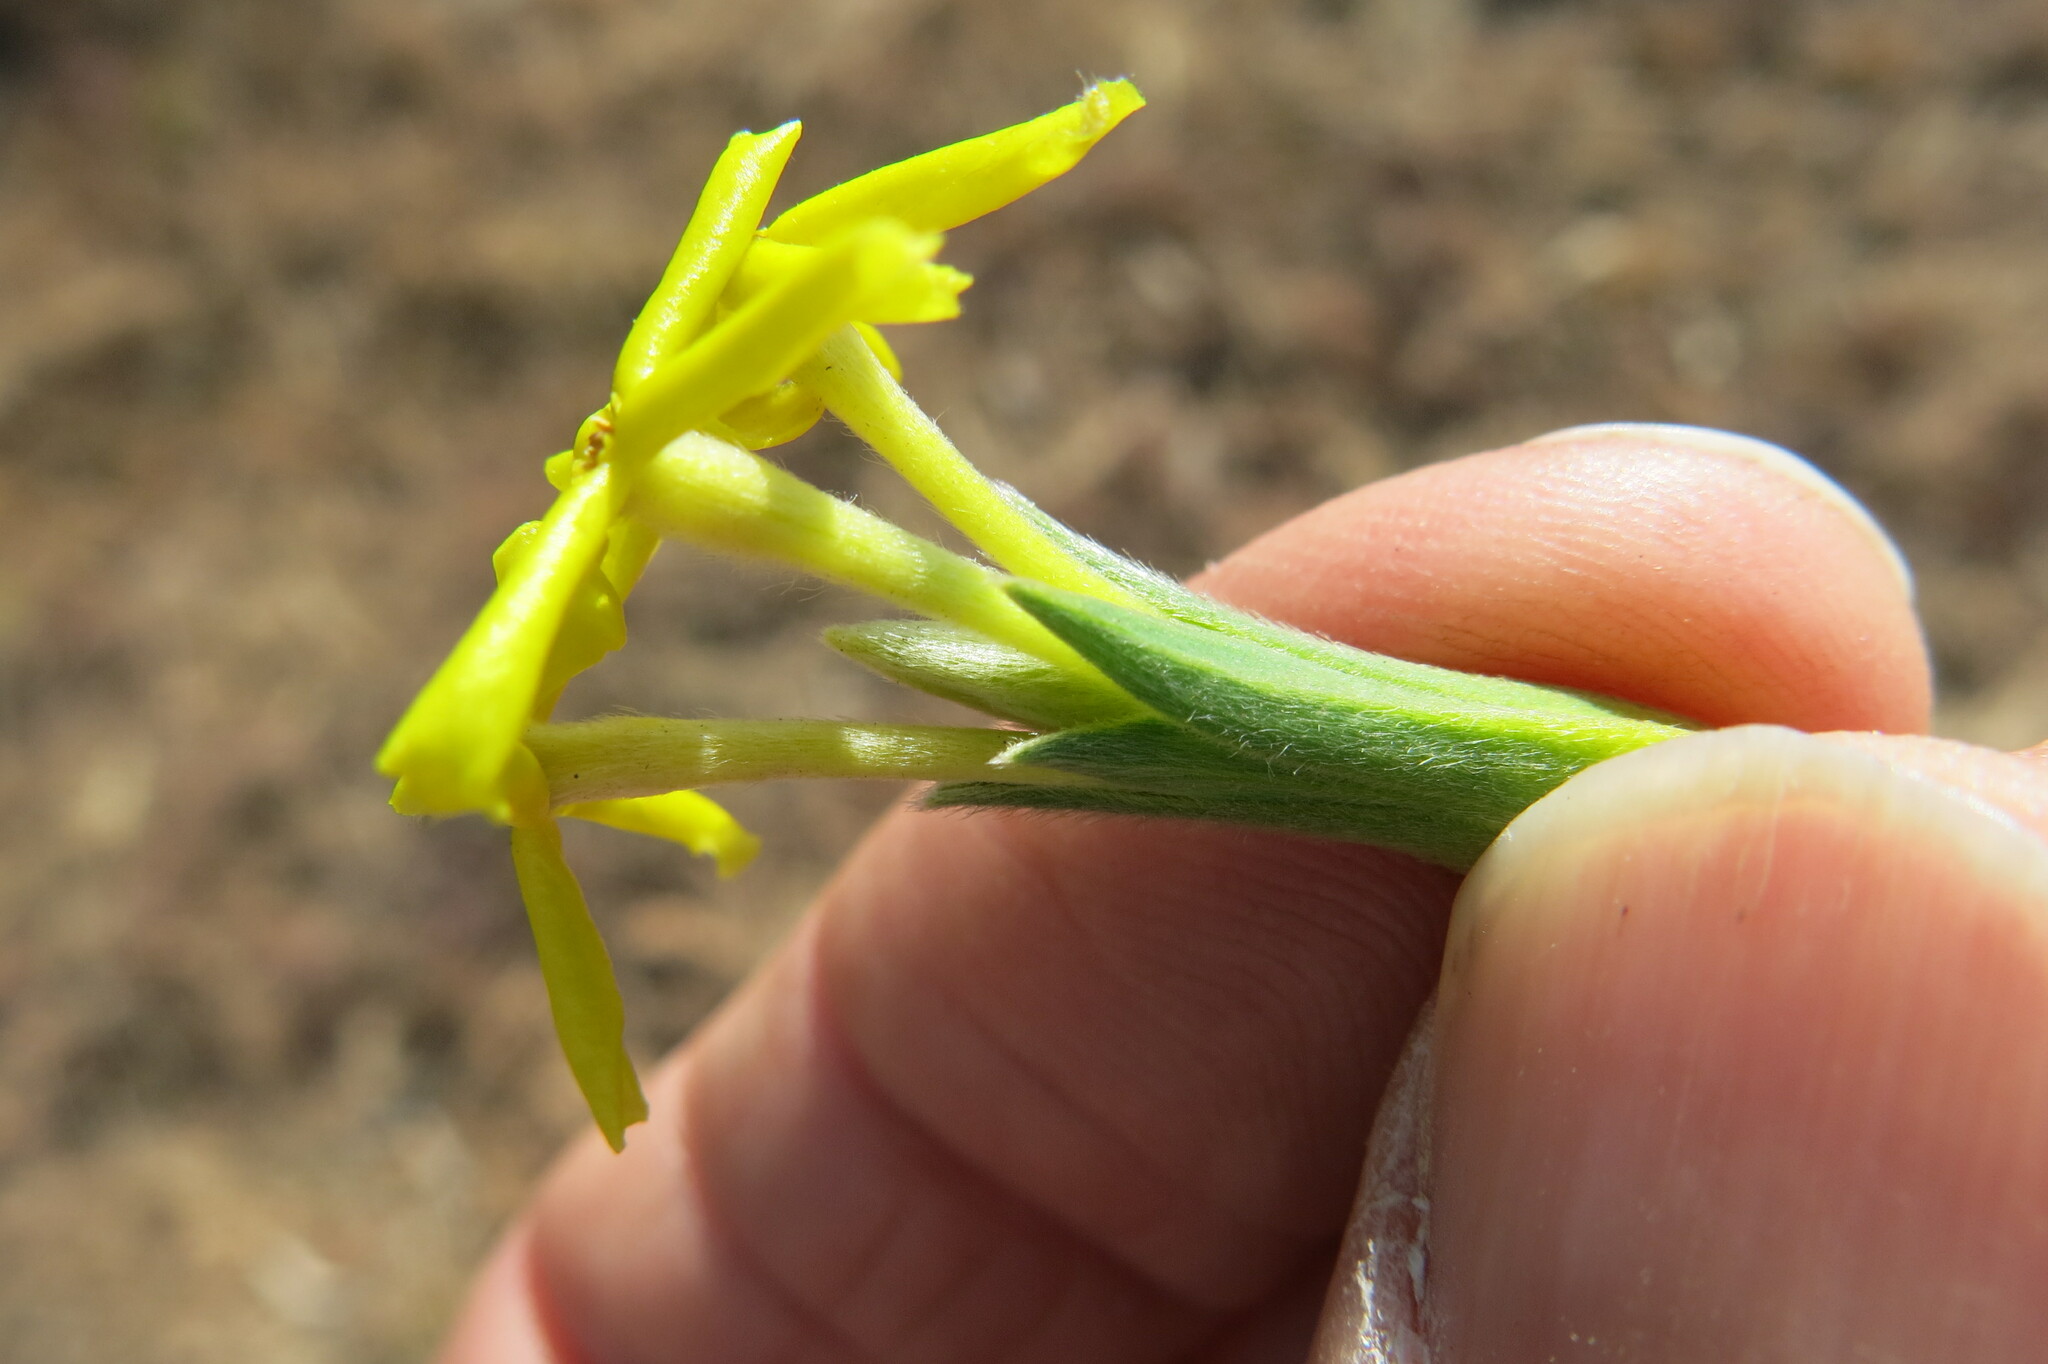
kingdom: Plantae
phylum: Tracheophyta
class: Magnoliopsida
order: Malvales
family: Thymelaeaceae
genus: Gnidia
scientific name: Gnidia caffra
